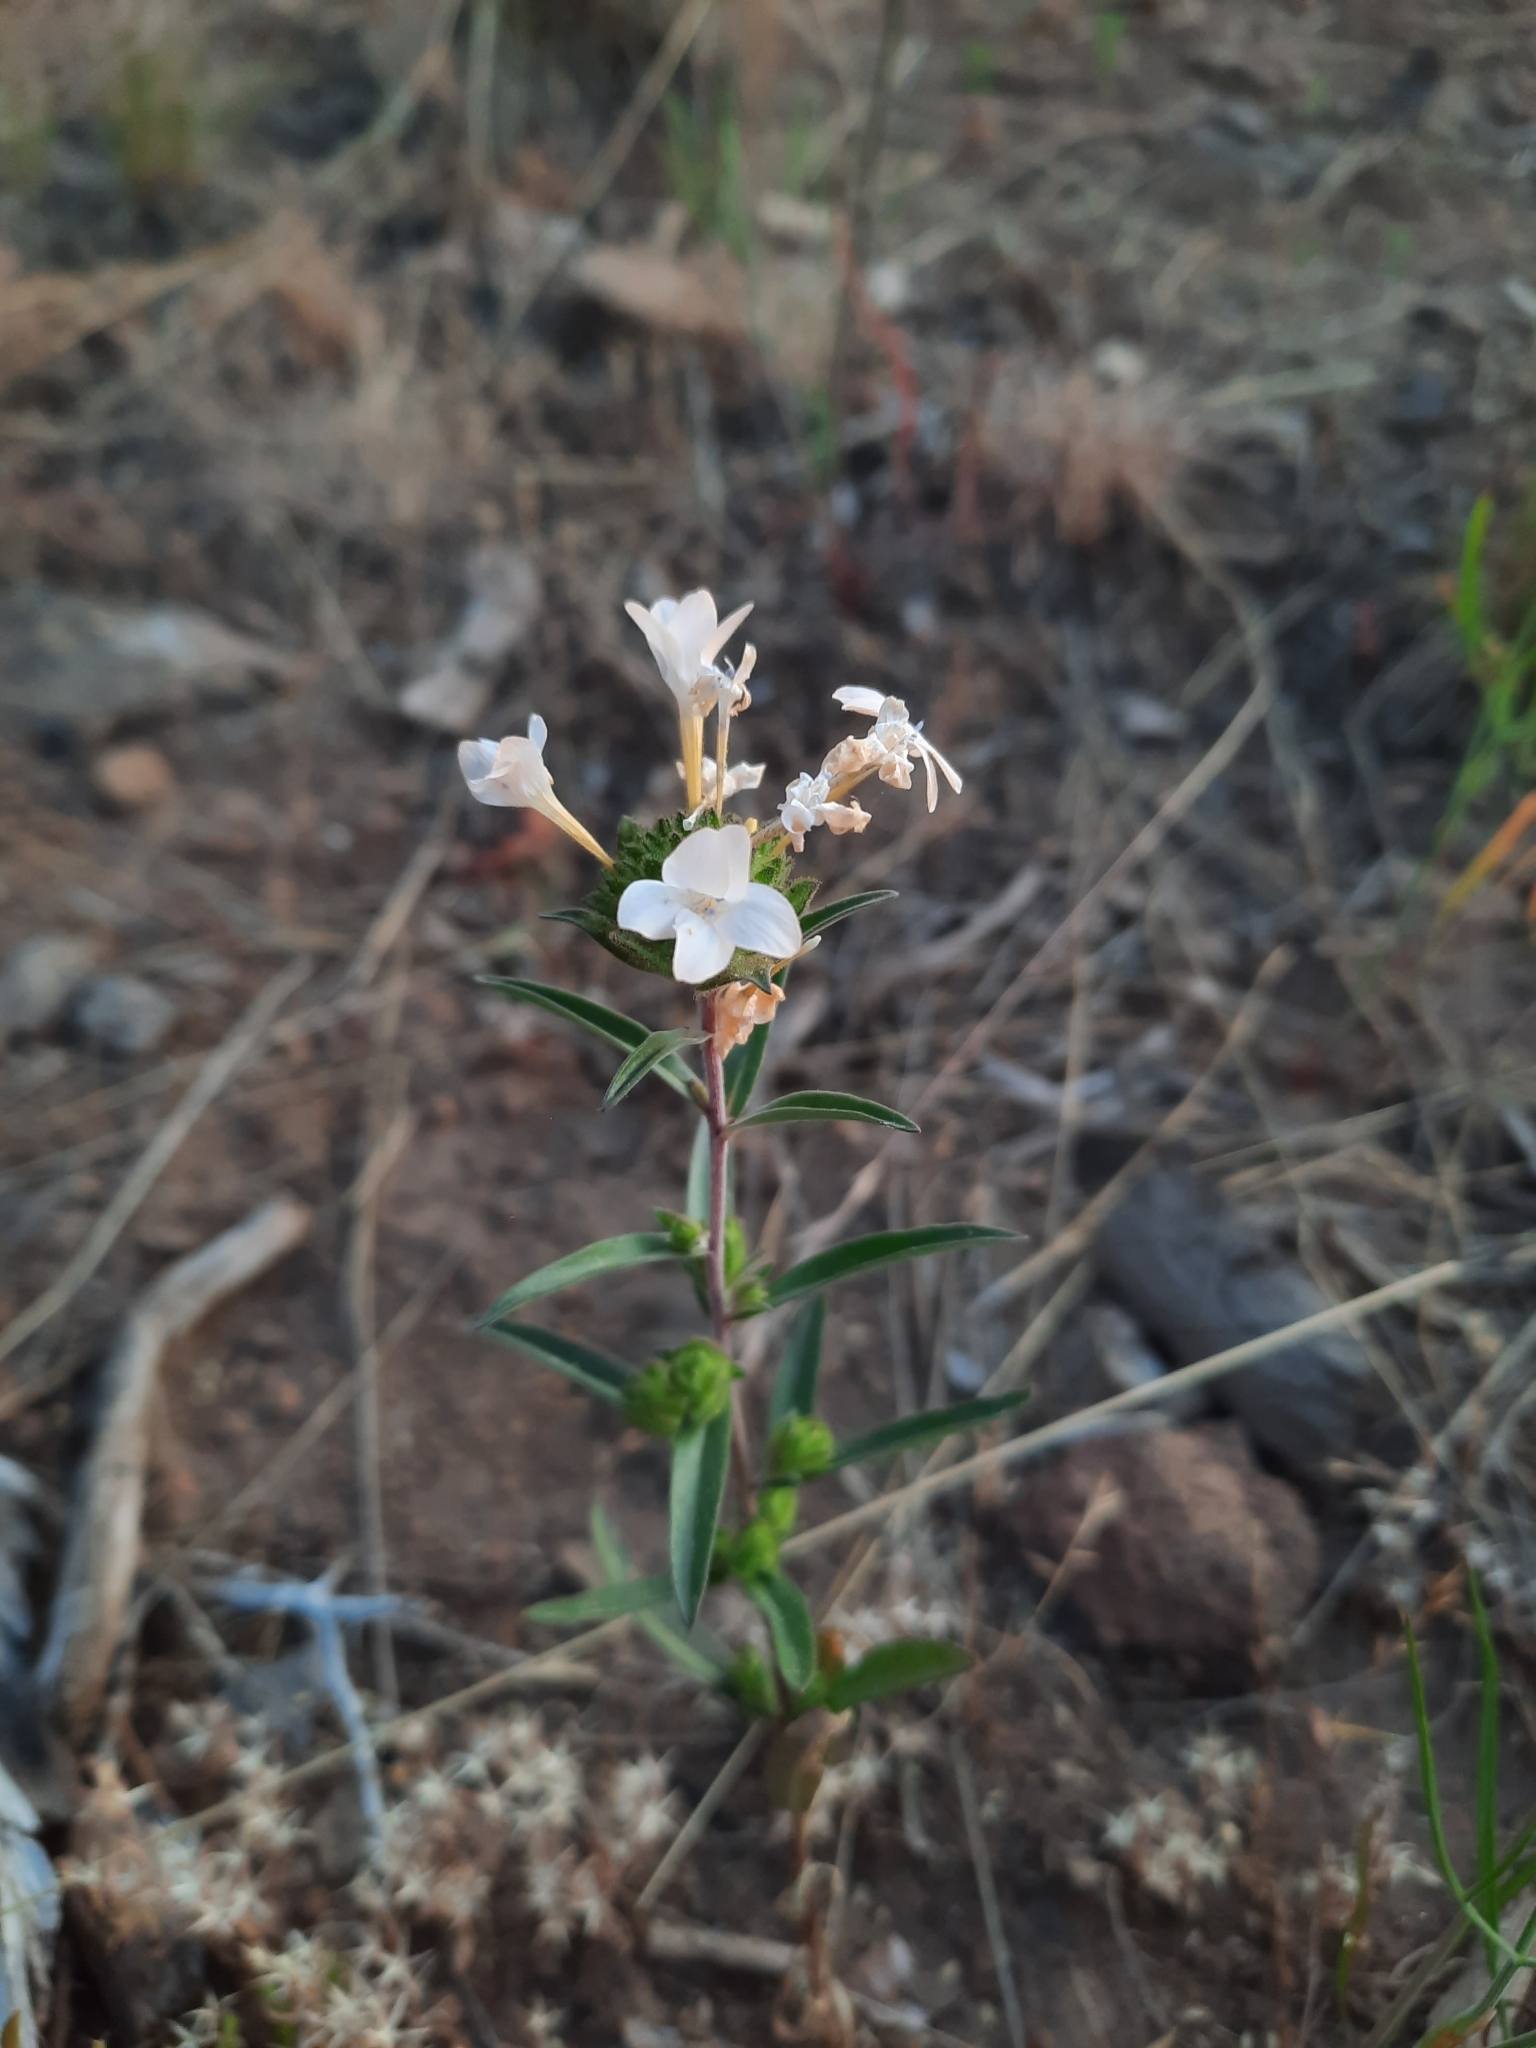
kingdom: Plantae
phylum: Tracheophyta
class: Magnoliopsida
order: Ericales
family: Polemoniaceae
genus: Collomia
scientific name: Collomia grandiflora
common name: California strawflower
